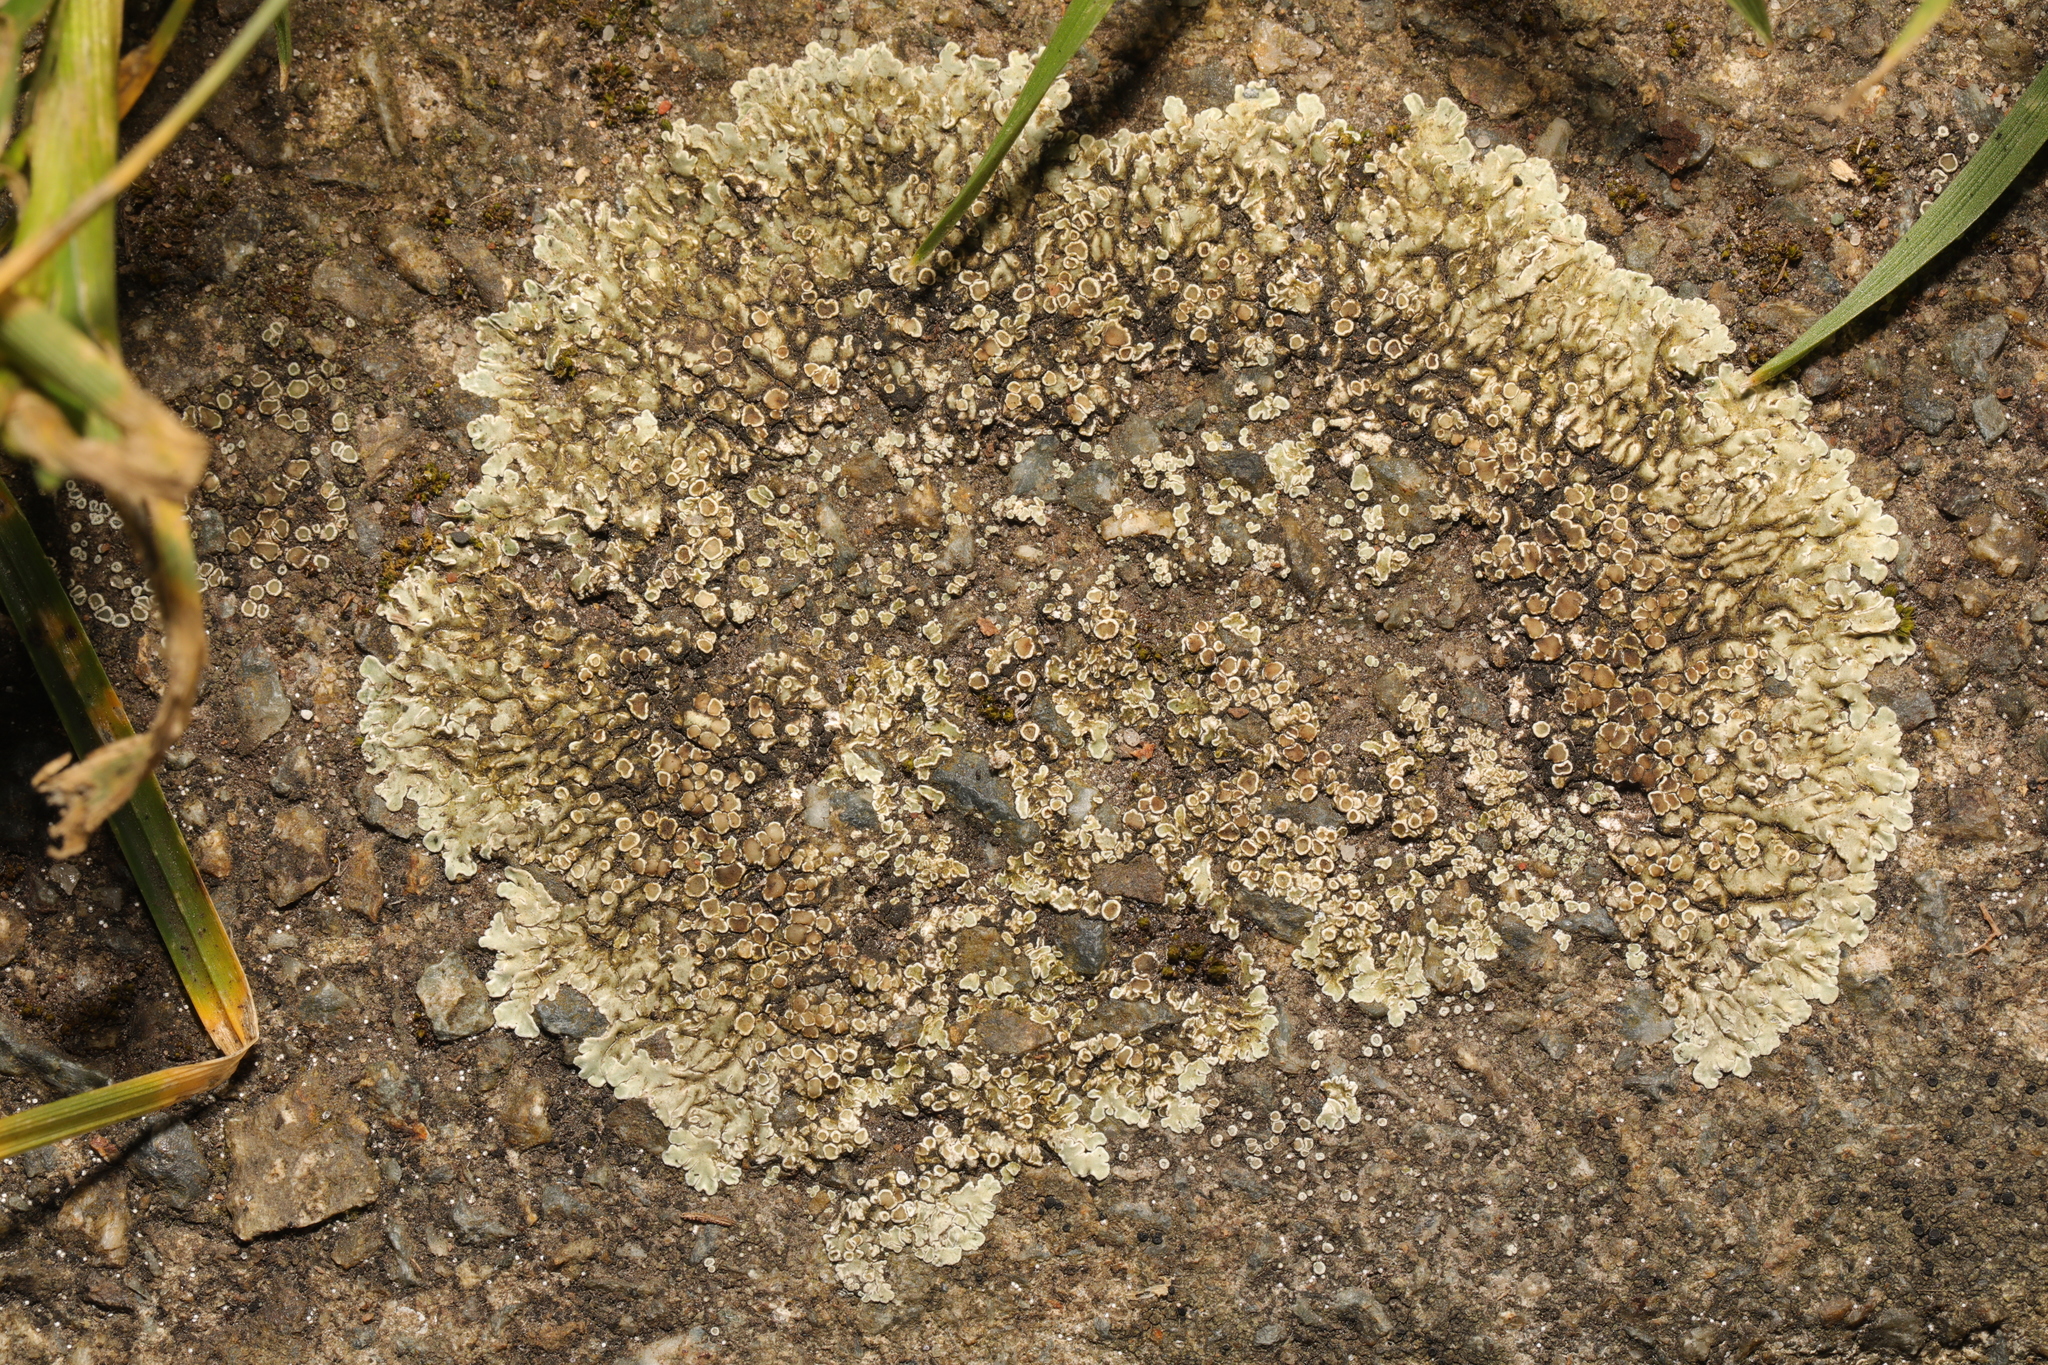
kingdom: Fungi
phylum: Ascomycota
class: Lecanoromycetes
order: Lecanorales
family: Lecanoraceae
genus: Protoparmeliopsis
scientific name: Protoparmeliopsis muralis
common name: Stonewall rim lichen
